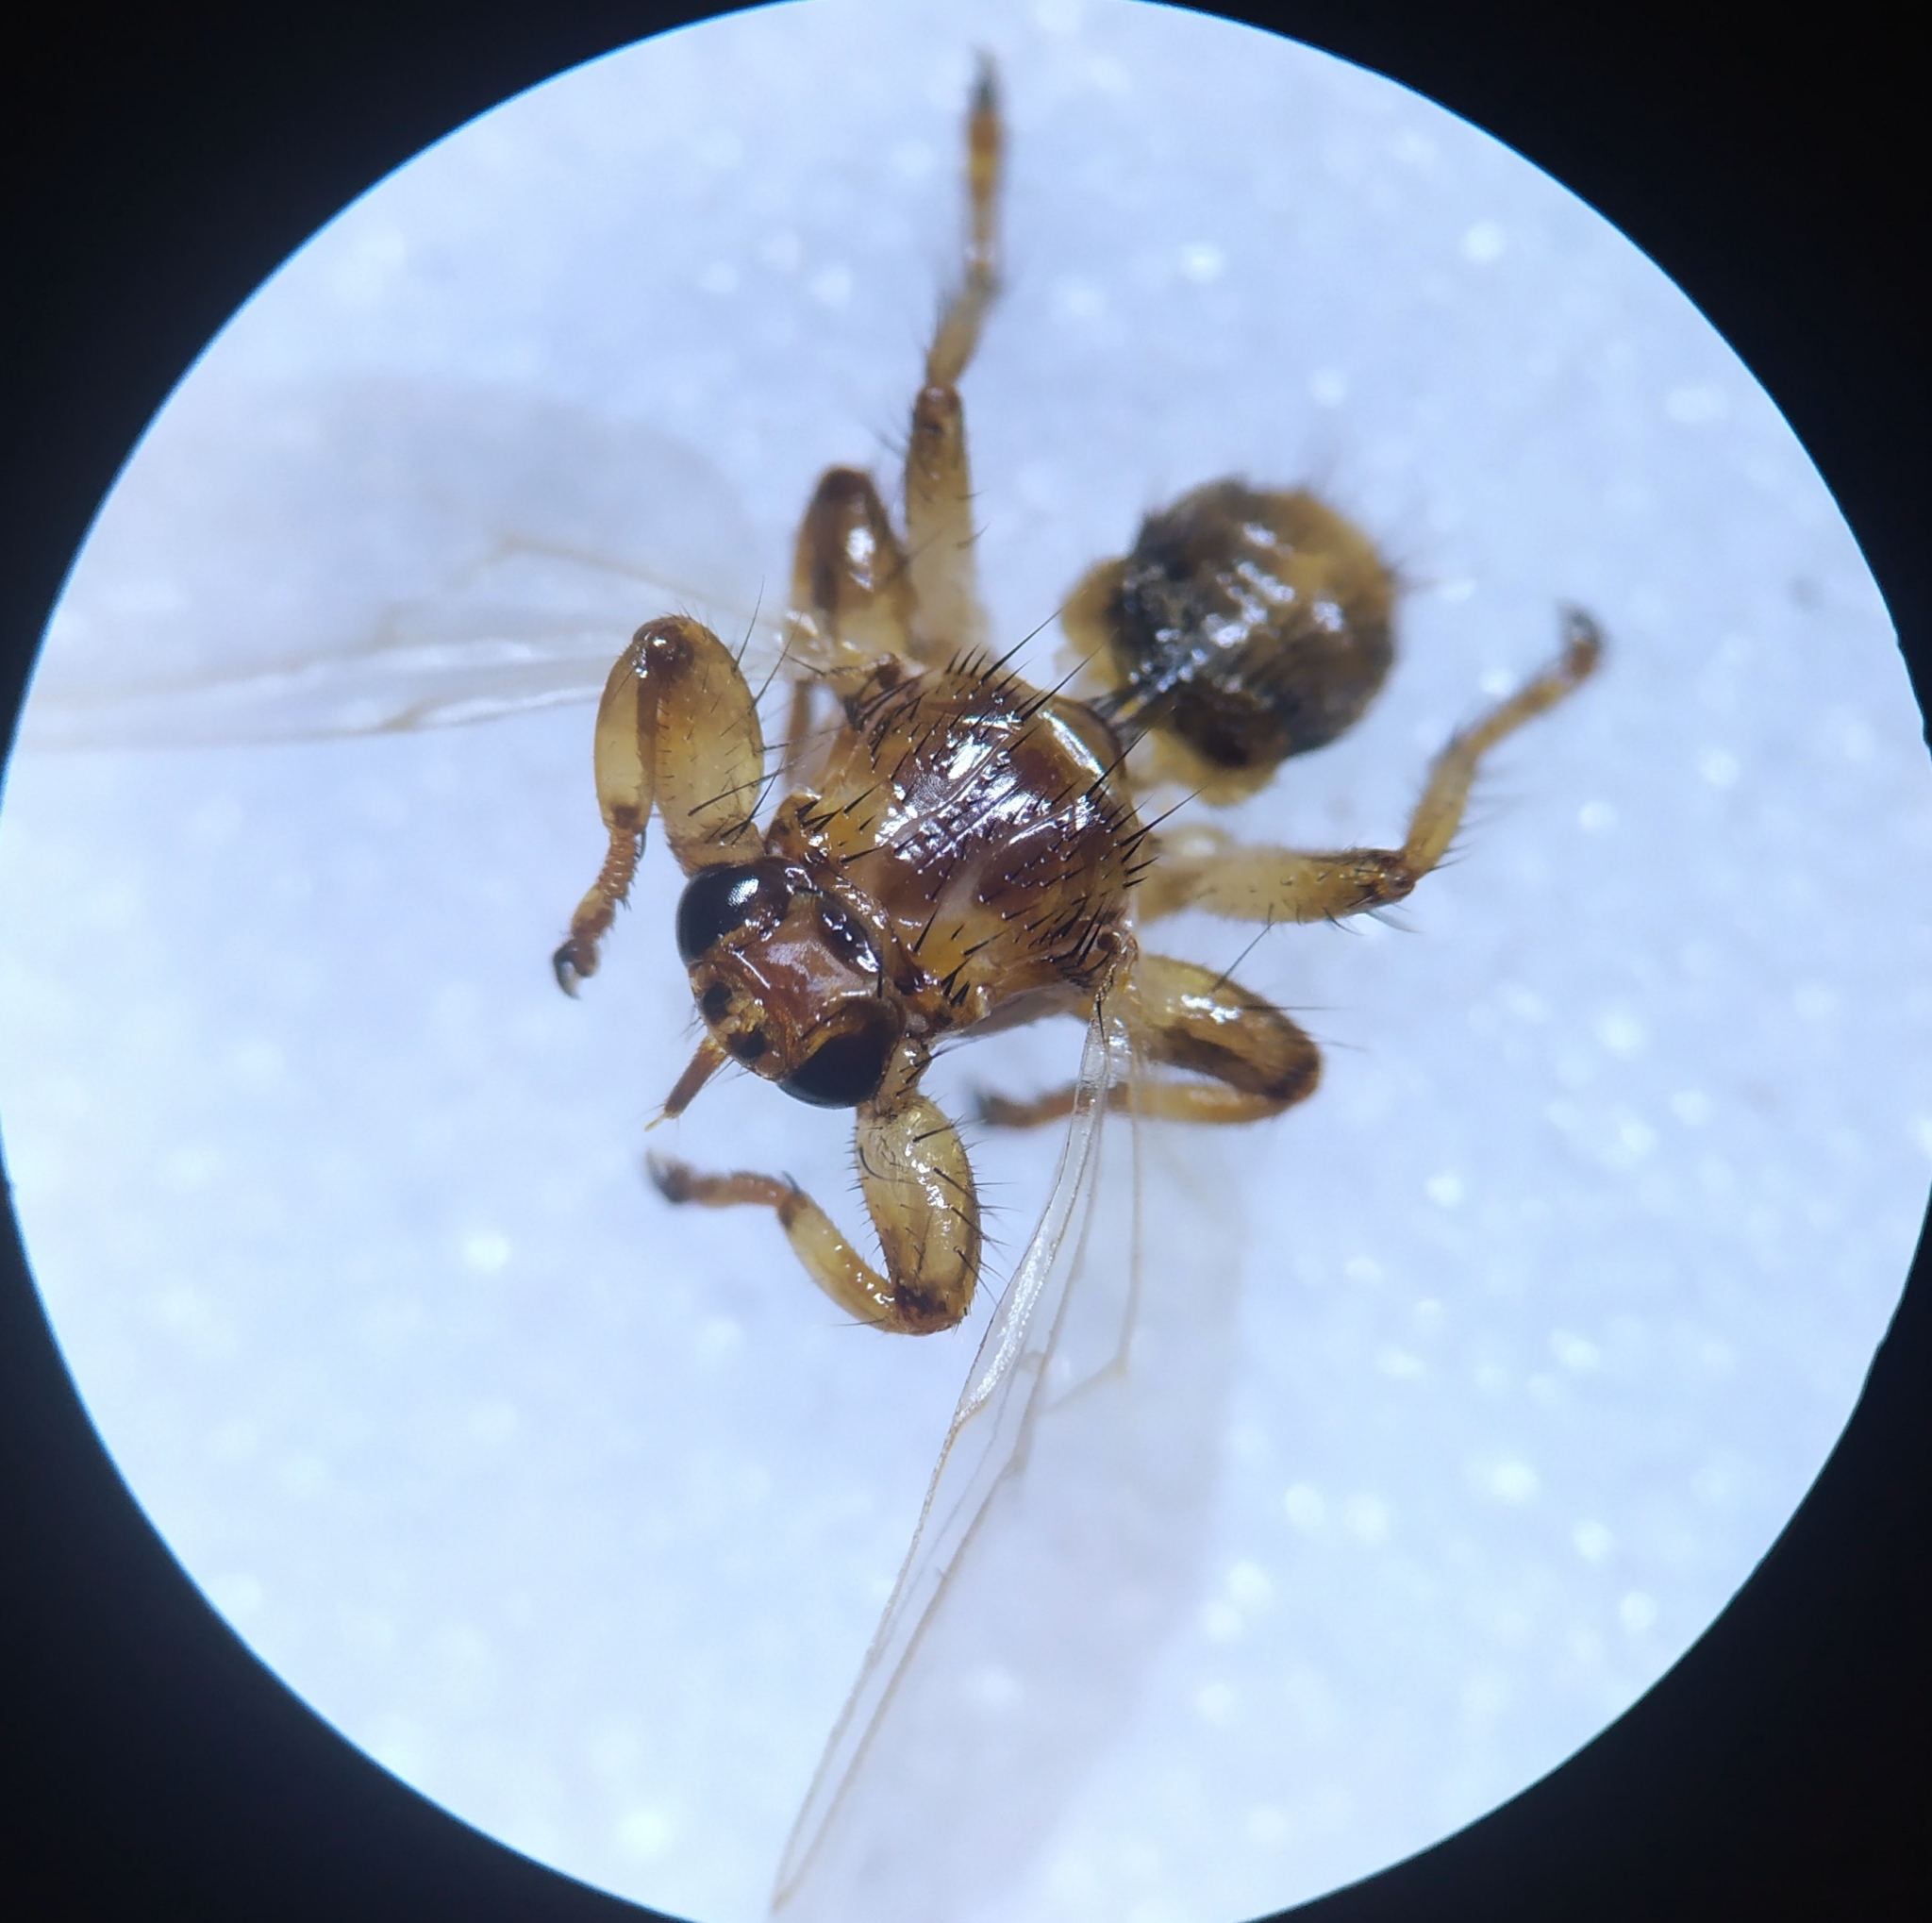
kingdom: Animalia
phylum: Arthropoda
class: Insecta
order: Diptera
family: Hippoboscidae
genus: Lipoptena
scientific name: Lipoptena cervi
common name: Deer ked
